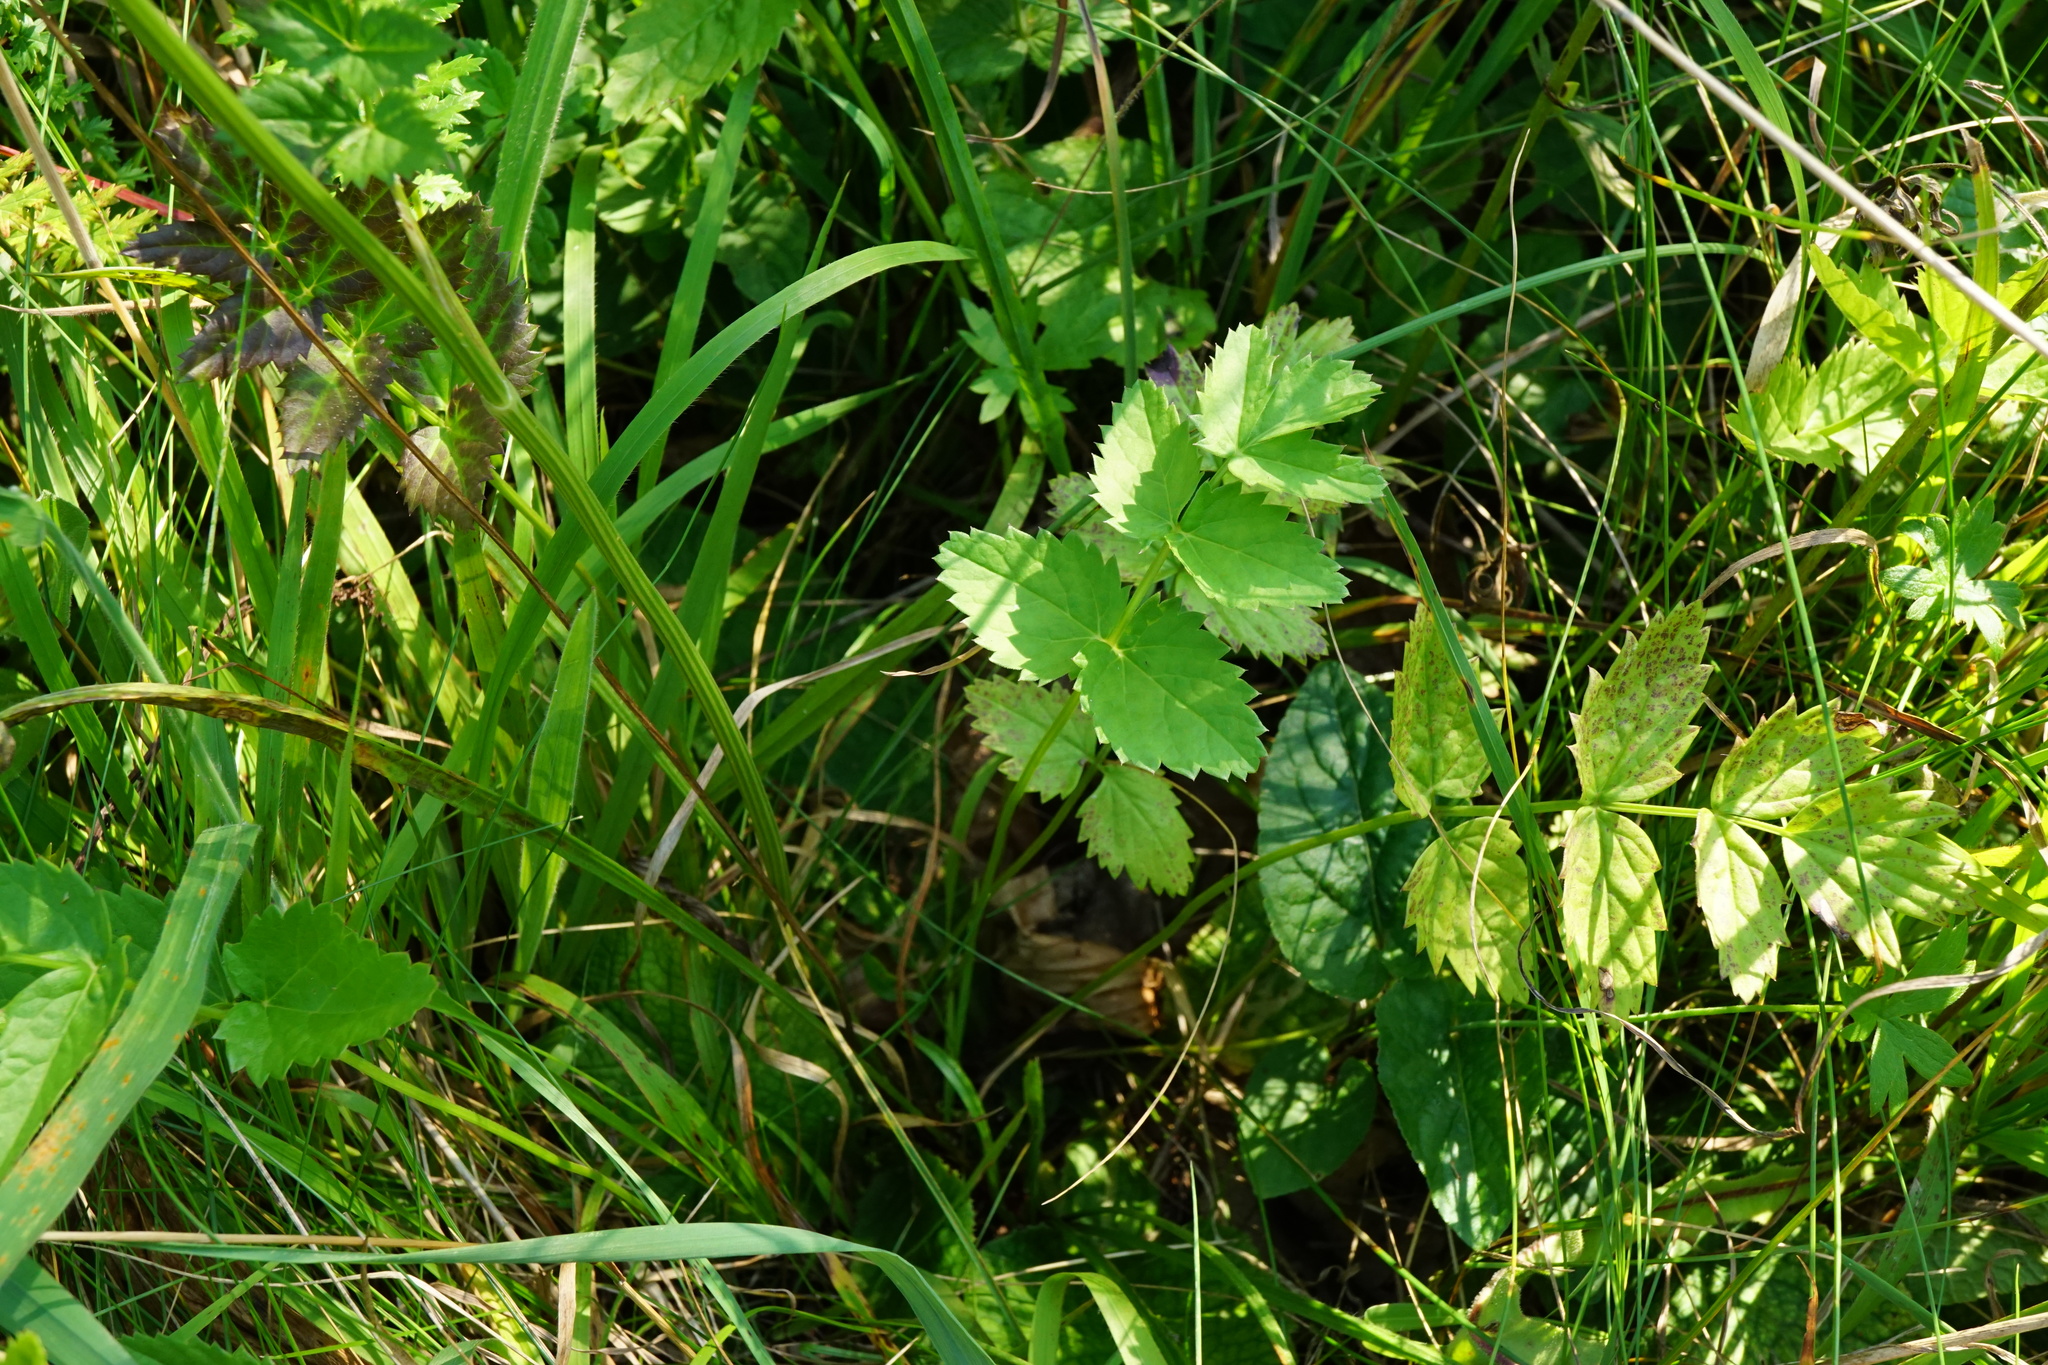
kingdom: Plantae
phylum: Tracheophyta
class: Magnoliopsida
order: Apiales
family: Apiaceae
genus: Pimpinella
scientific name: Pimpinella major
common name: Greater burnet-saxifrage
